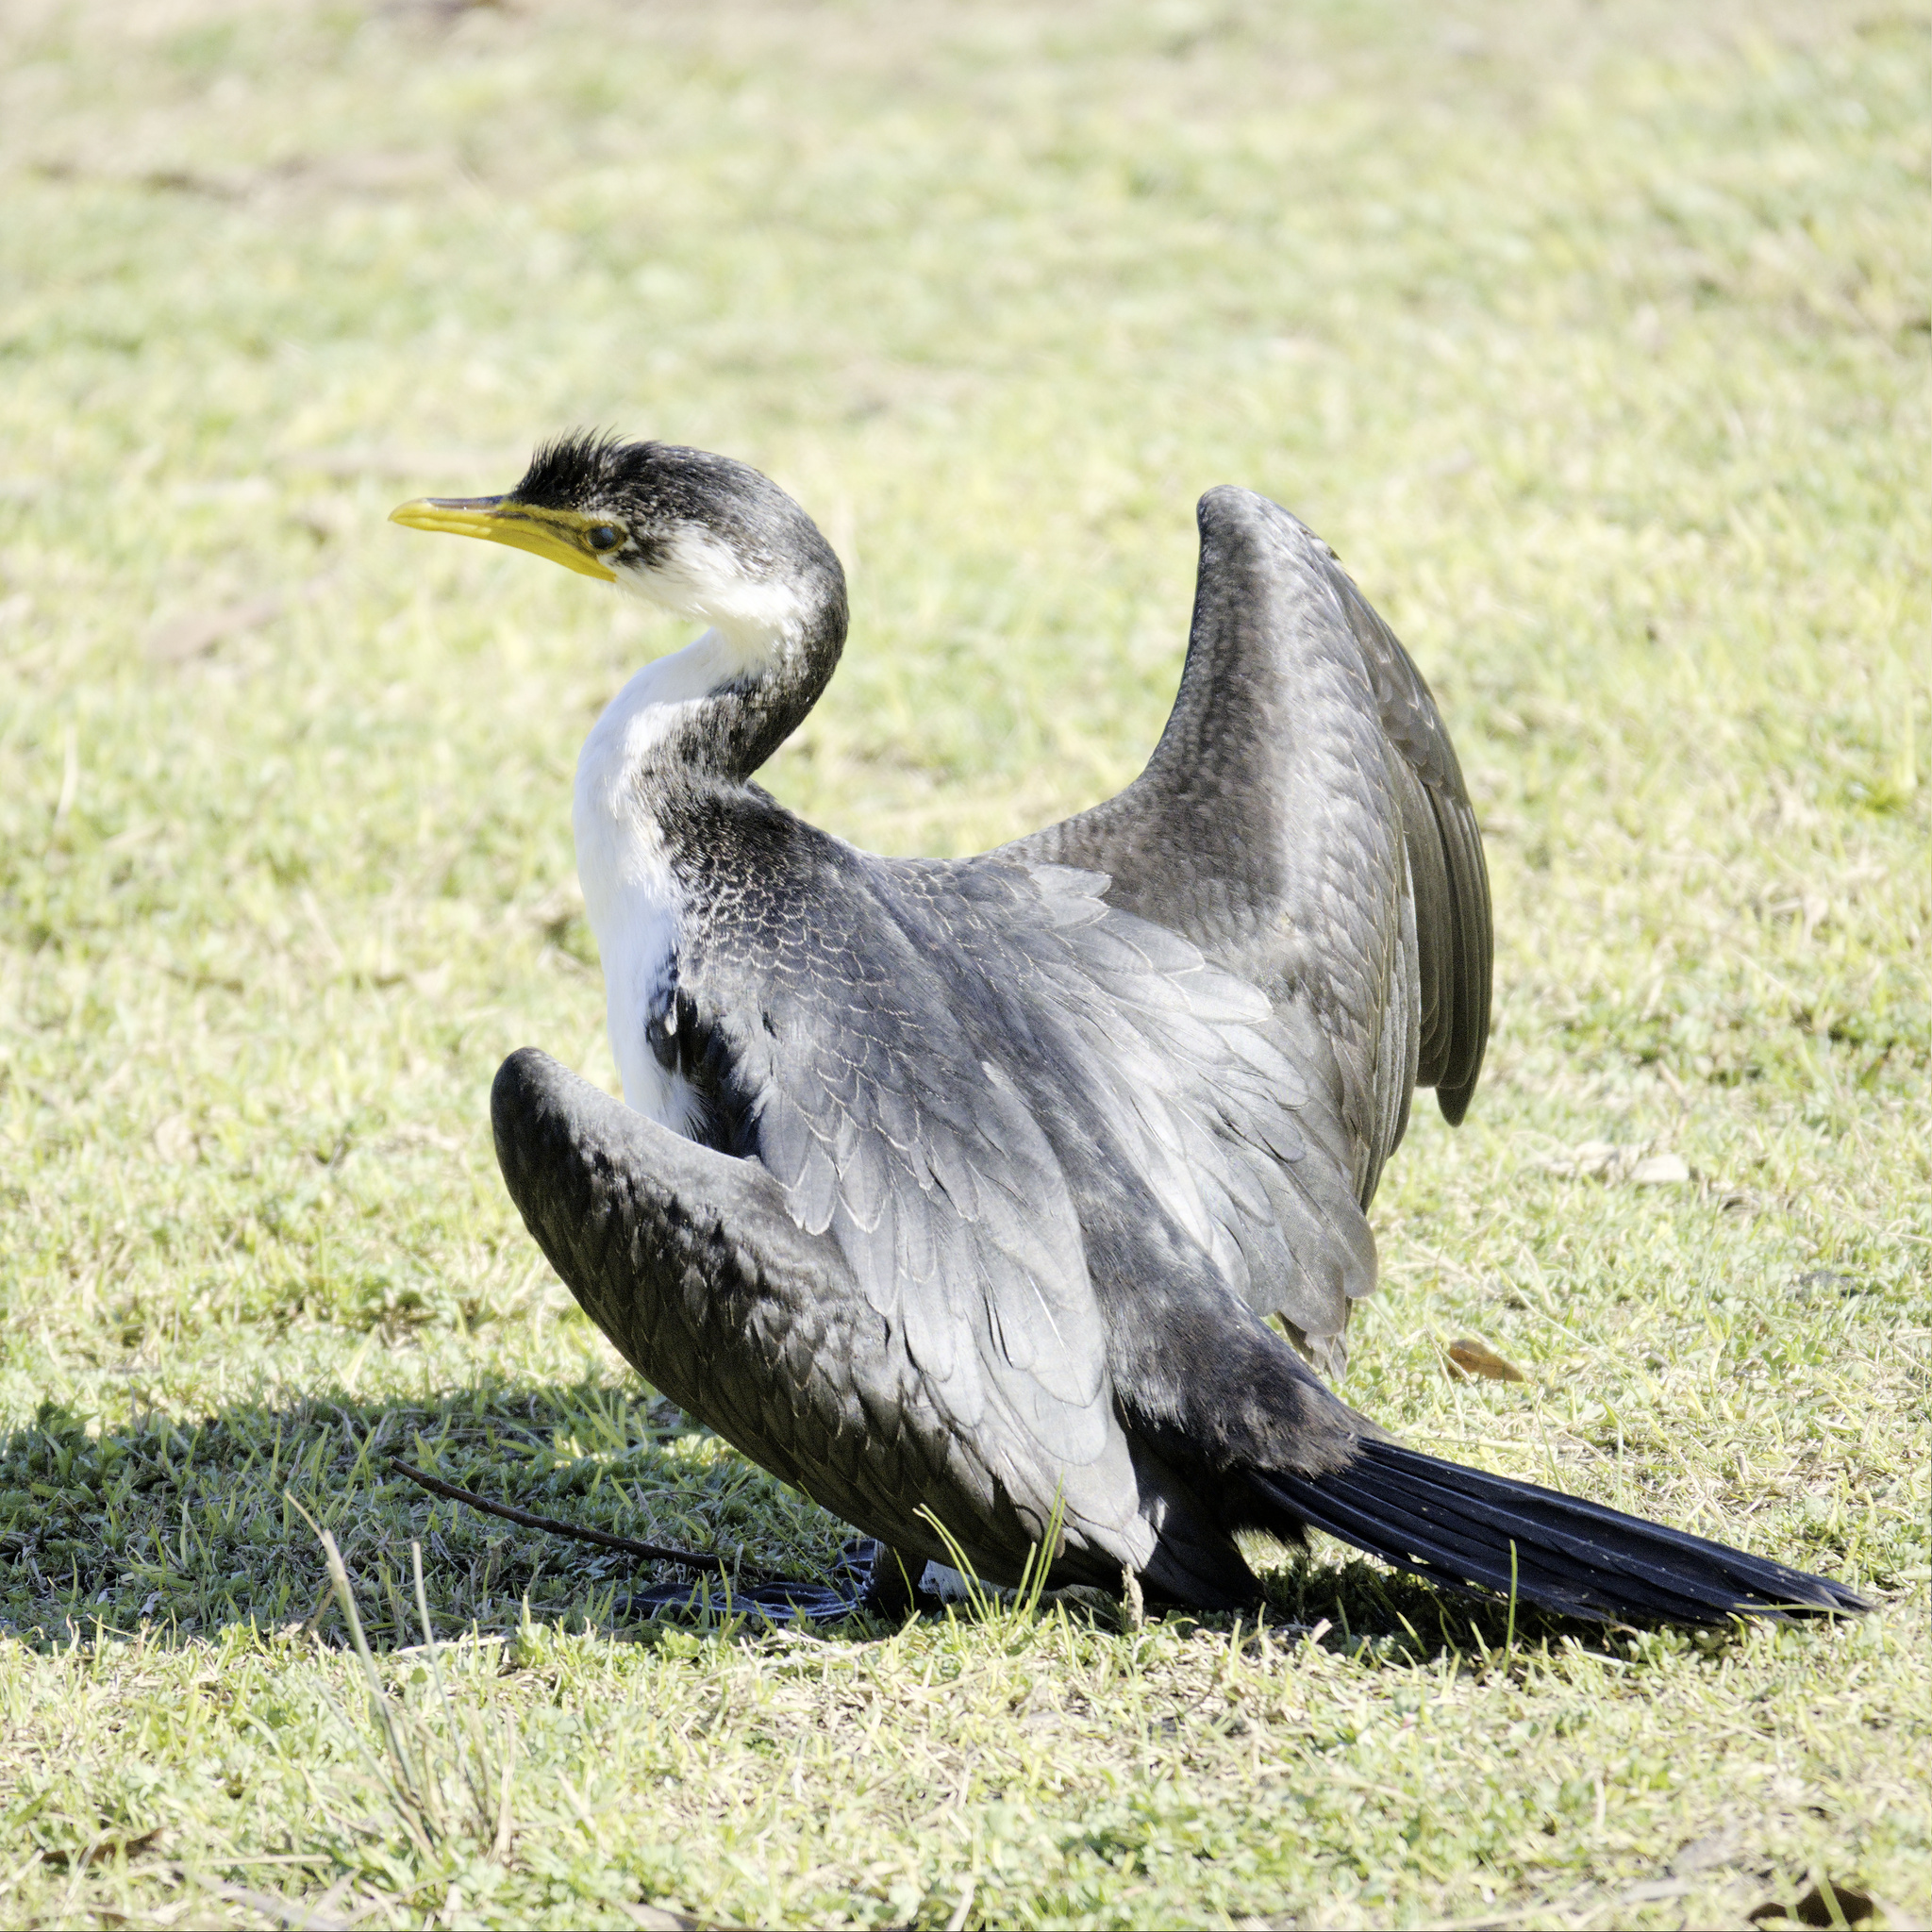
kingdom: Animalia
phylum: Chordata
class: Aves
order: Suliformes
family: Phalacrocoracidae
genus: Microcarbo
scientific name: Microcarbo melanoleucos
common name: Little pied cormorant
